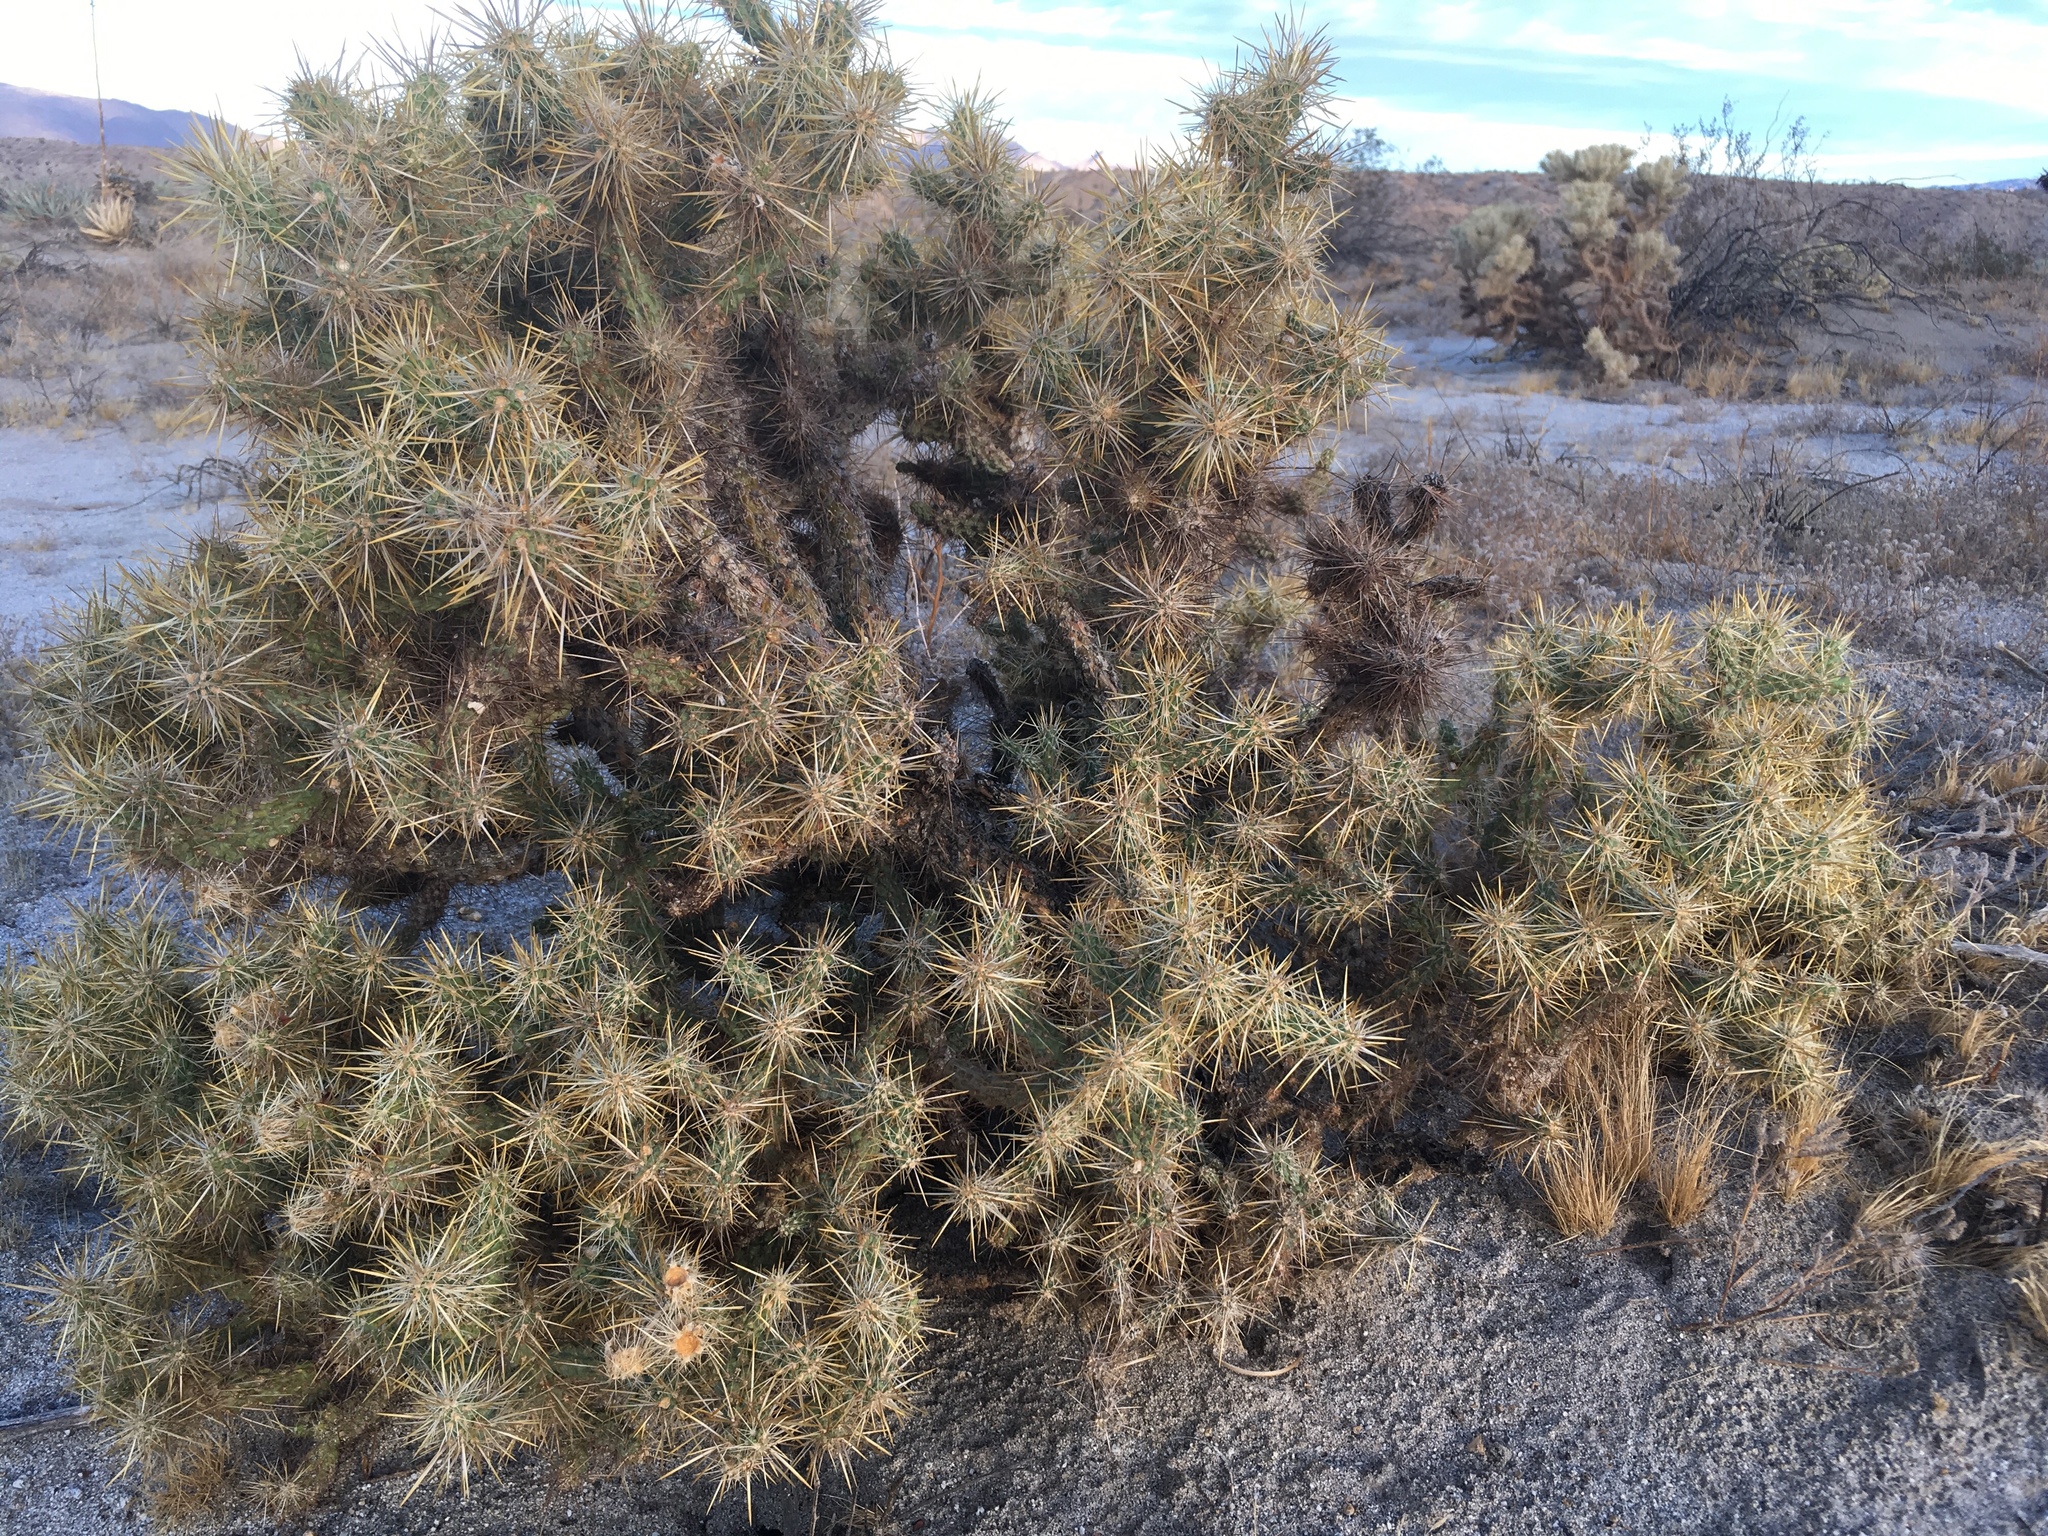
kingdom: Plantae
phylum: Tracheophyta
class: Magnoliopsida
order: Caryophyllales
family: Cactaceae
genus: Cylindropuntia
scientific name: Cylindropuntia echinocarpa
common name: Ground cholla
